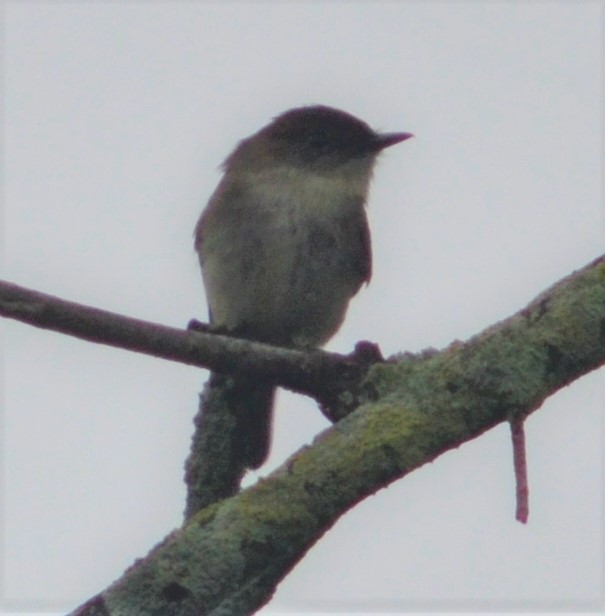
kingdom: Animalia
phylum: Chordata
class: Aves
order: Passeriformes
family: Tyrannidae
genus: Sayornis
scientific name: Sayornis phoebe
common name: Eastern phoebe
